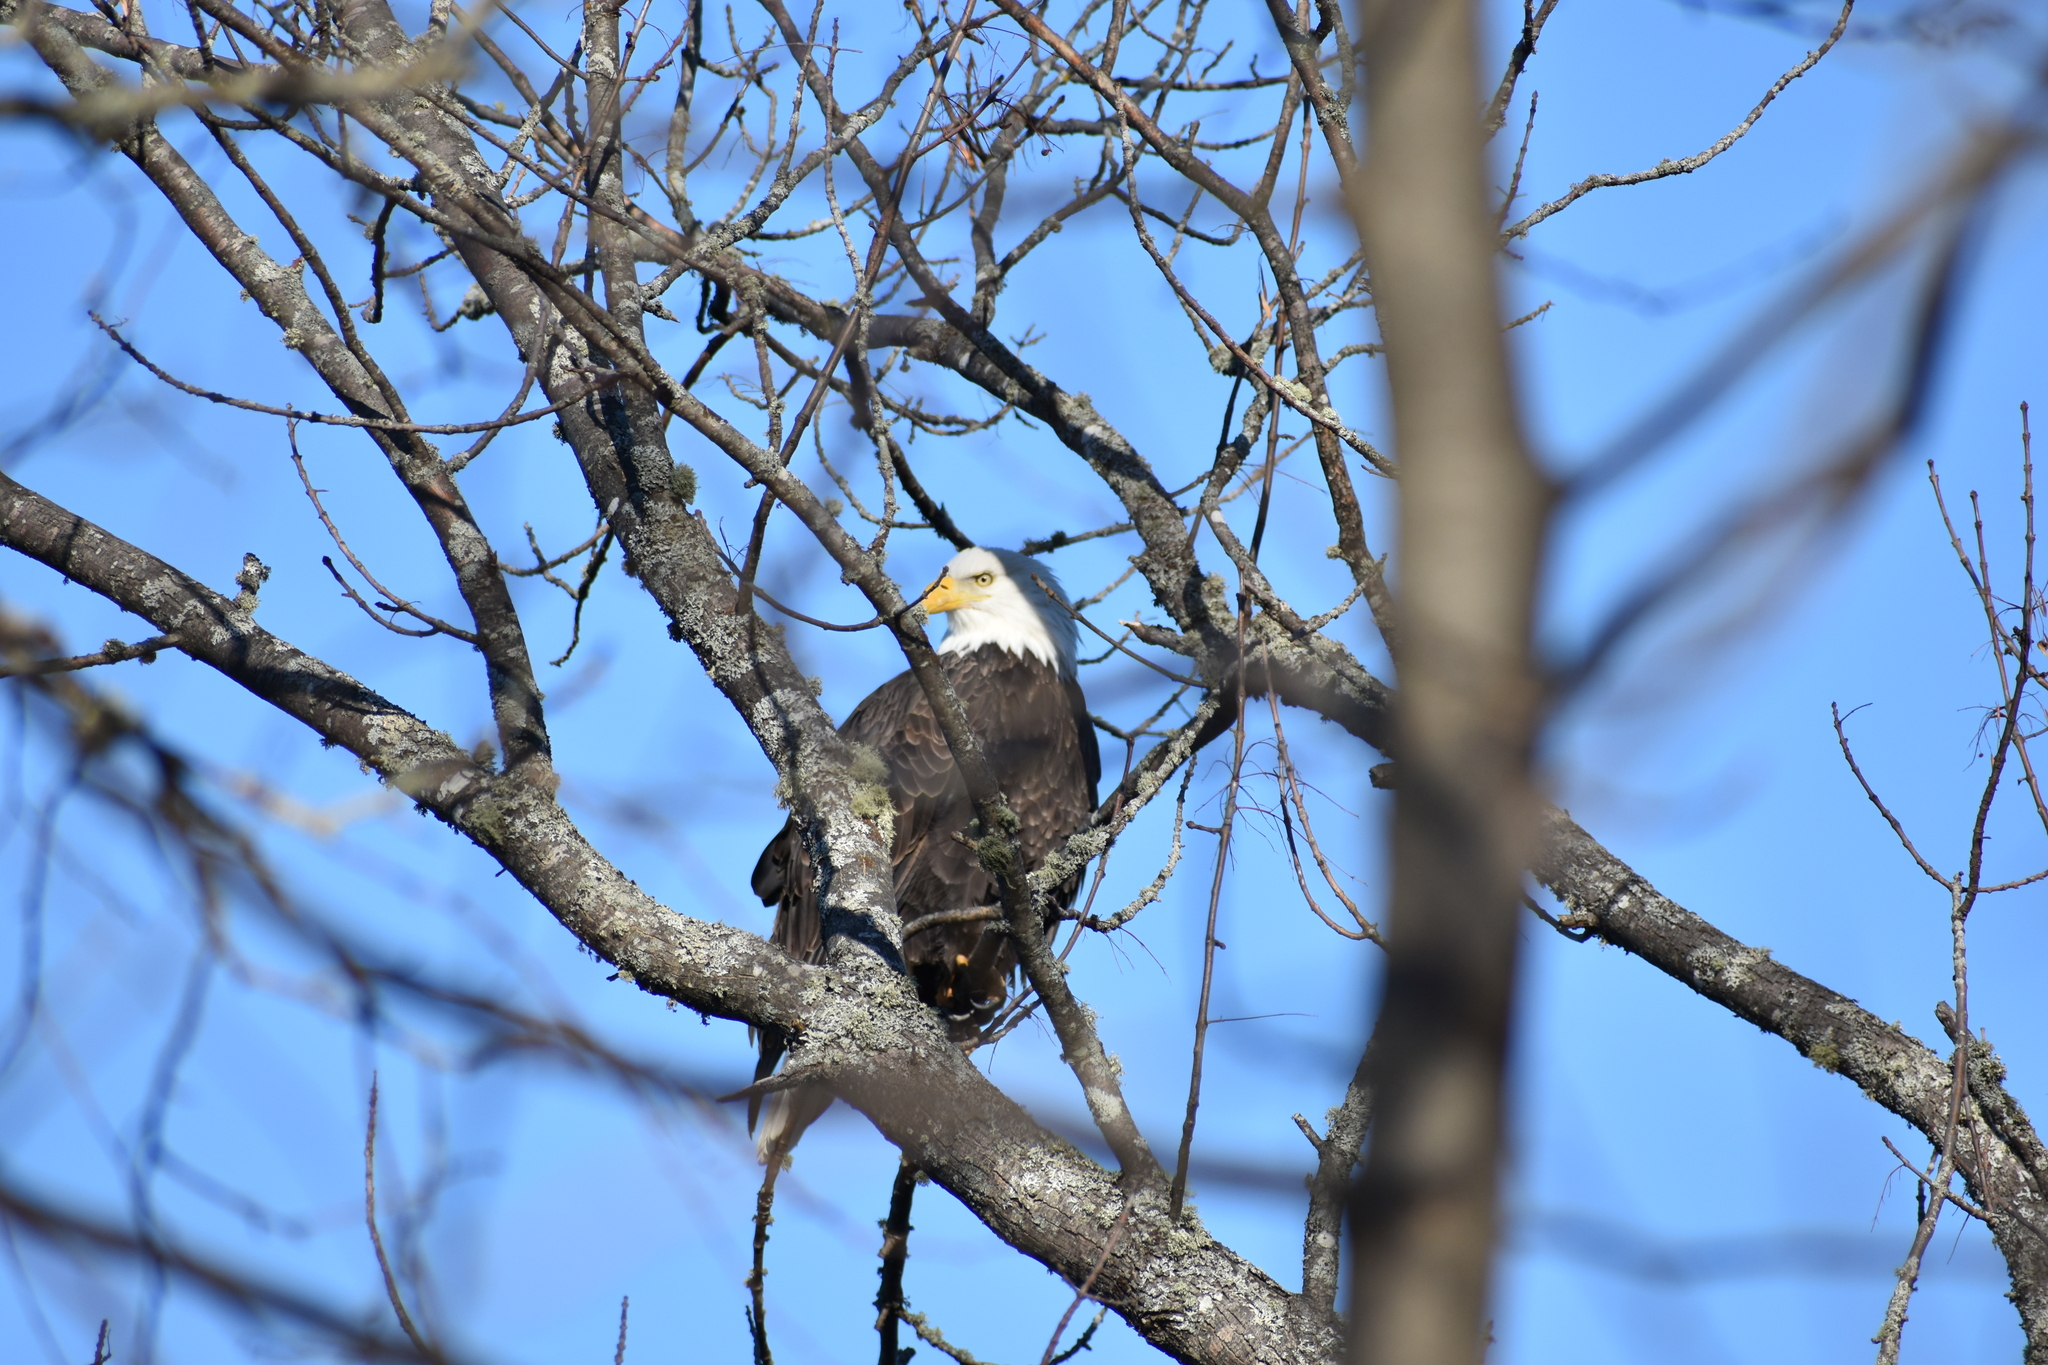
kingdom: Animalia
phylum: Chordata
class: Aves
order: Accipitriformes
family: Accipitridae
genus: Haliaeetus
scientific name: Haliaeetus leucocephalus
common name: Bald eagle
